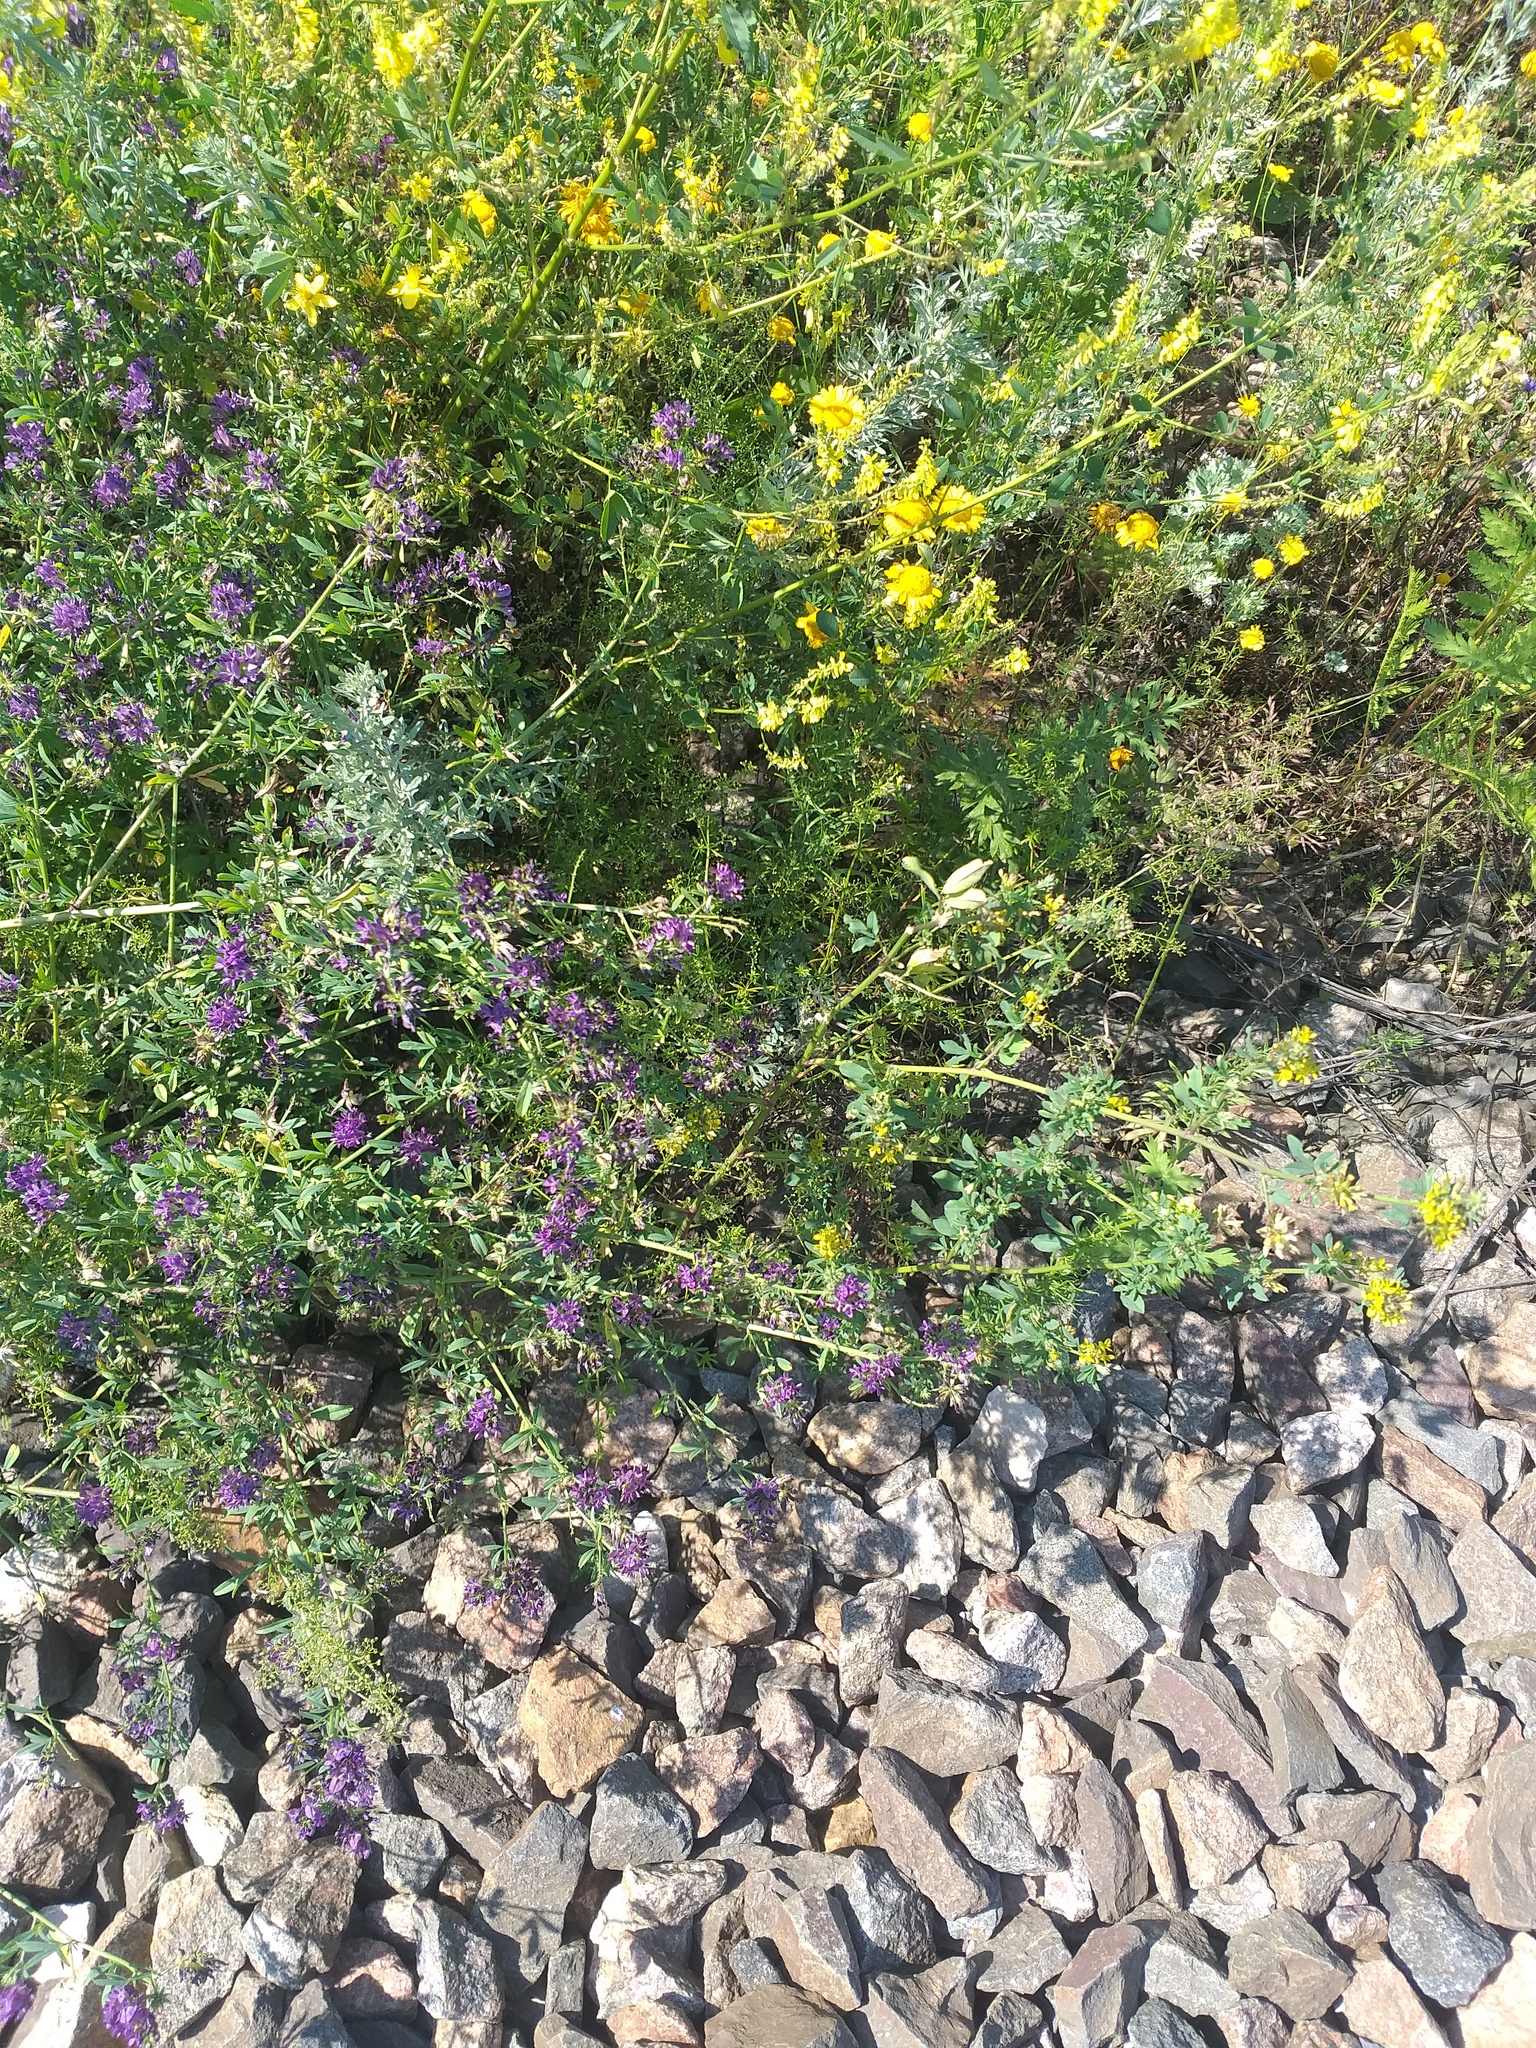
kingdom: Plantae
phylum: Tracheophyta
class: Magnoliopsida
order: Fabales
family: Fabaceae
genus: Medicago
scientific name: Medicago varia
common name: Sand lucerne
